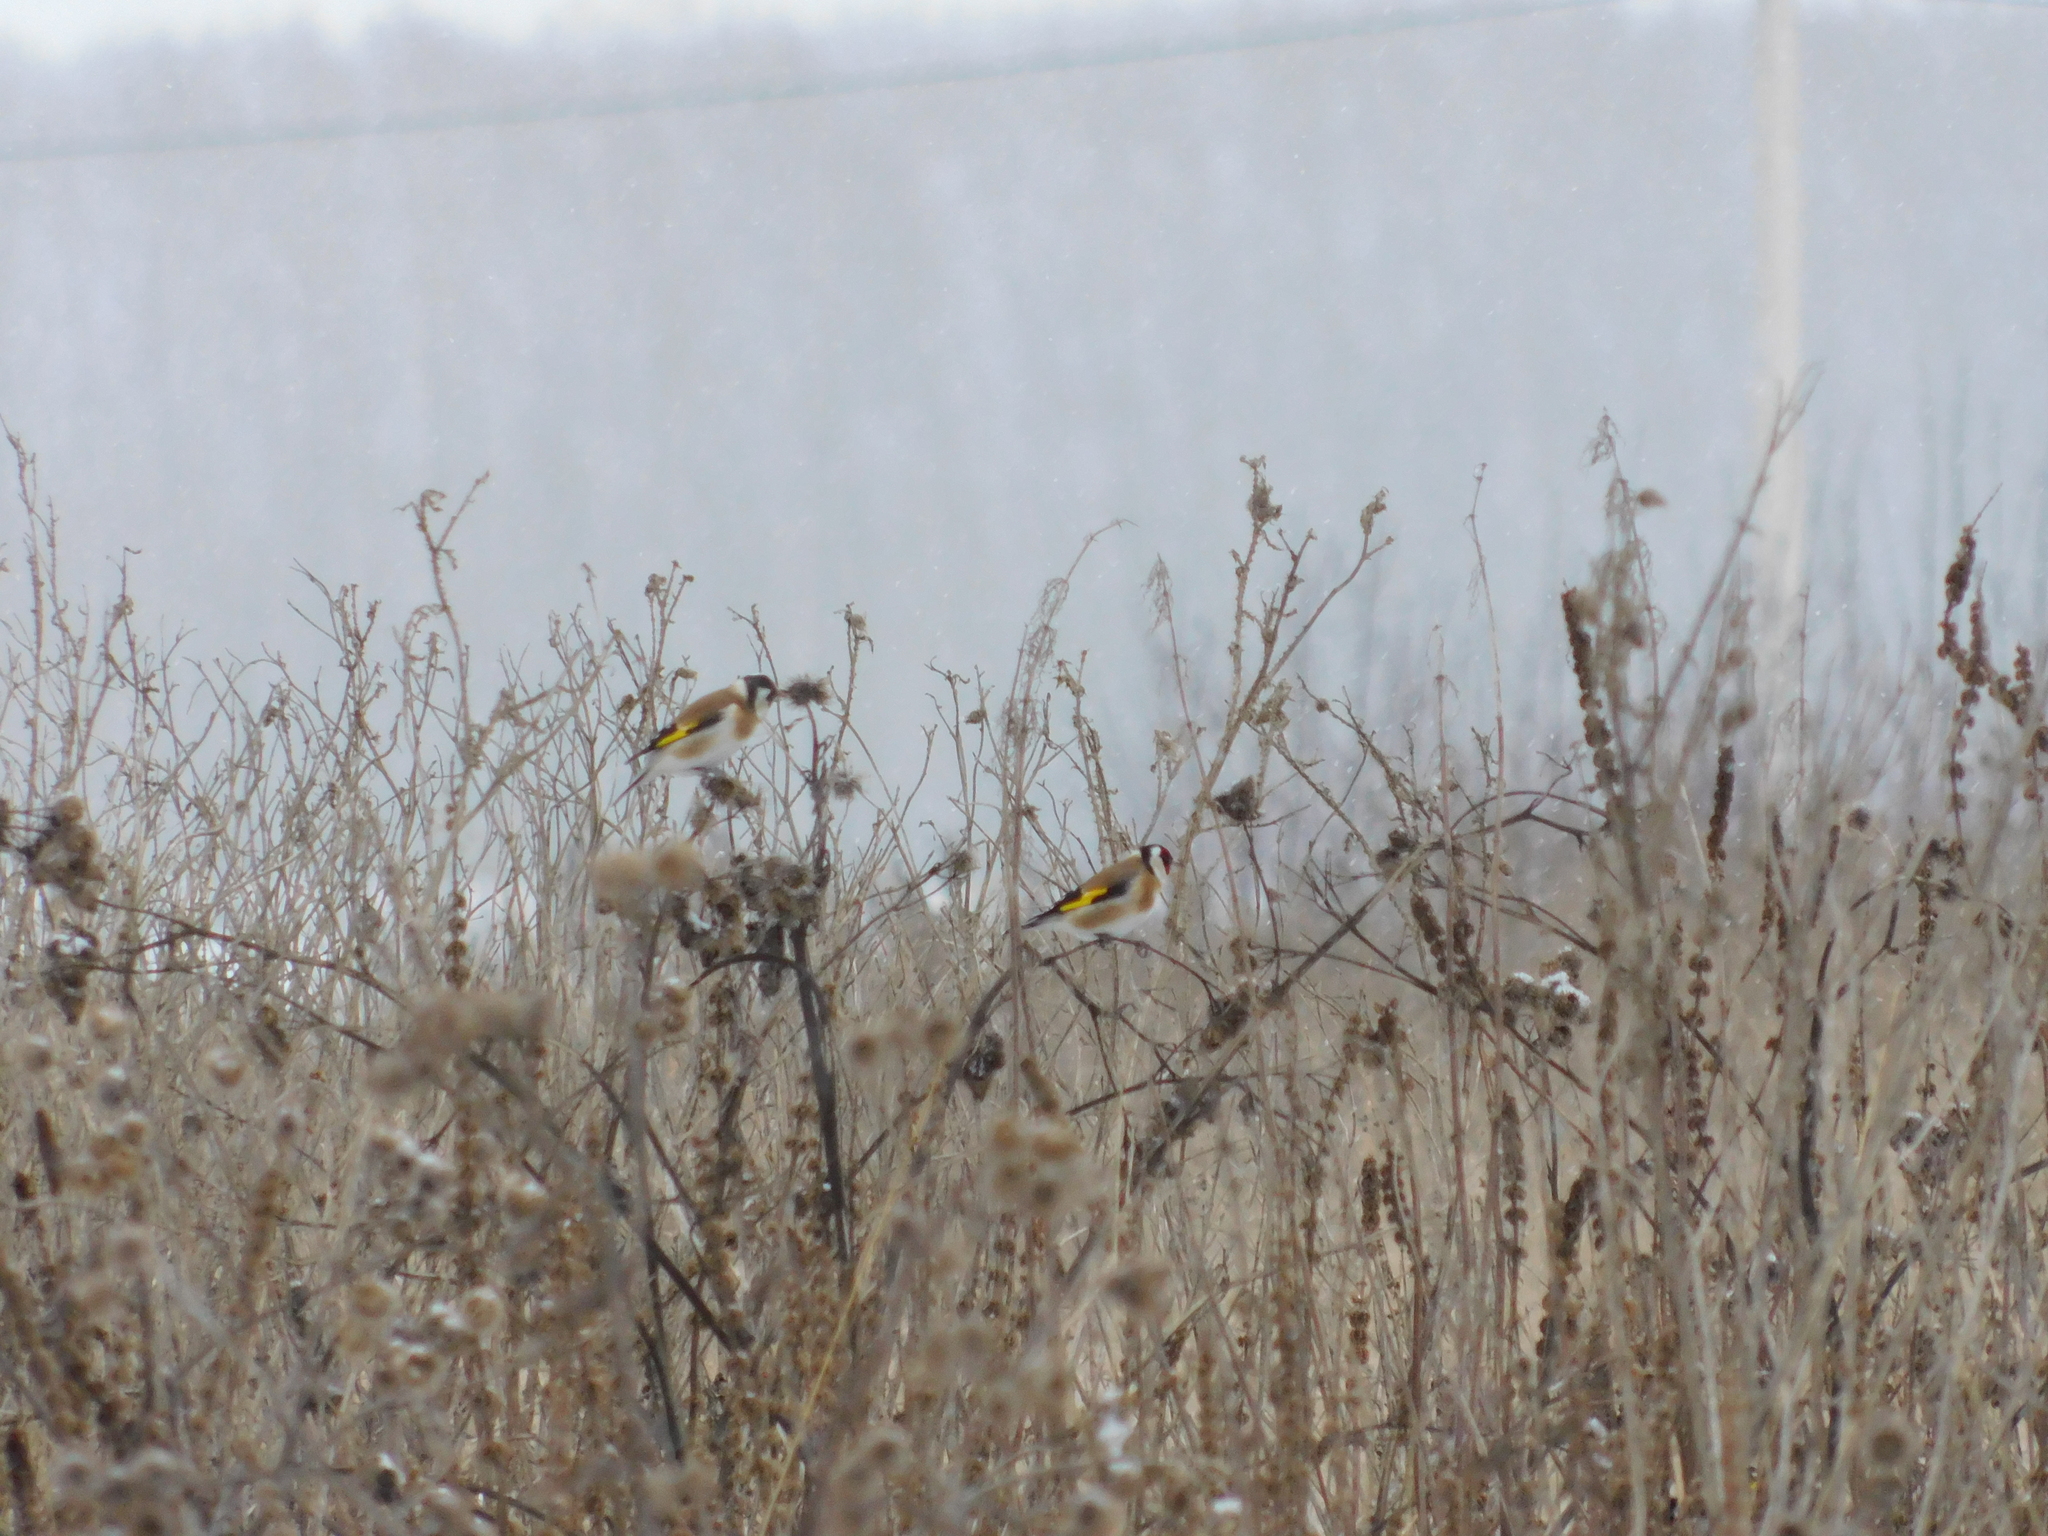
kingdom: Animalia
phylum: Chordata
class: Aves
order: Passeriformes
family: Fringillidae
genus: Carduelis
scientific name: Carduelis carduelis
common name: European goldfinch
